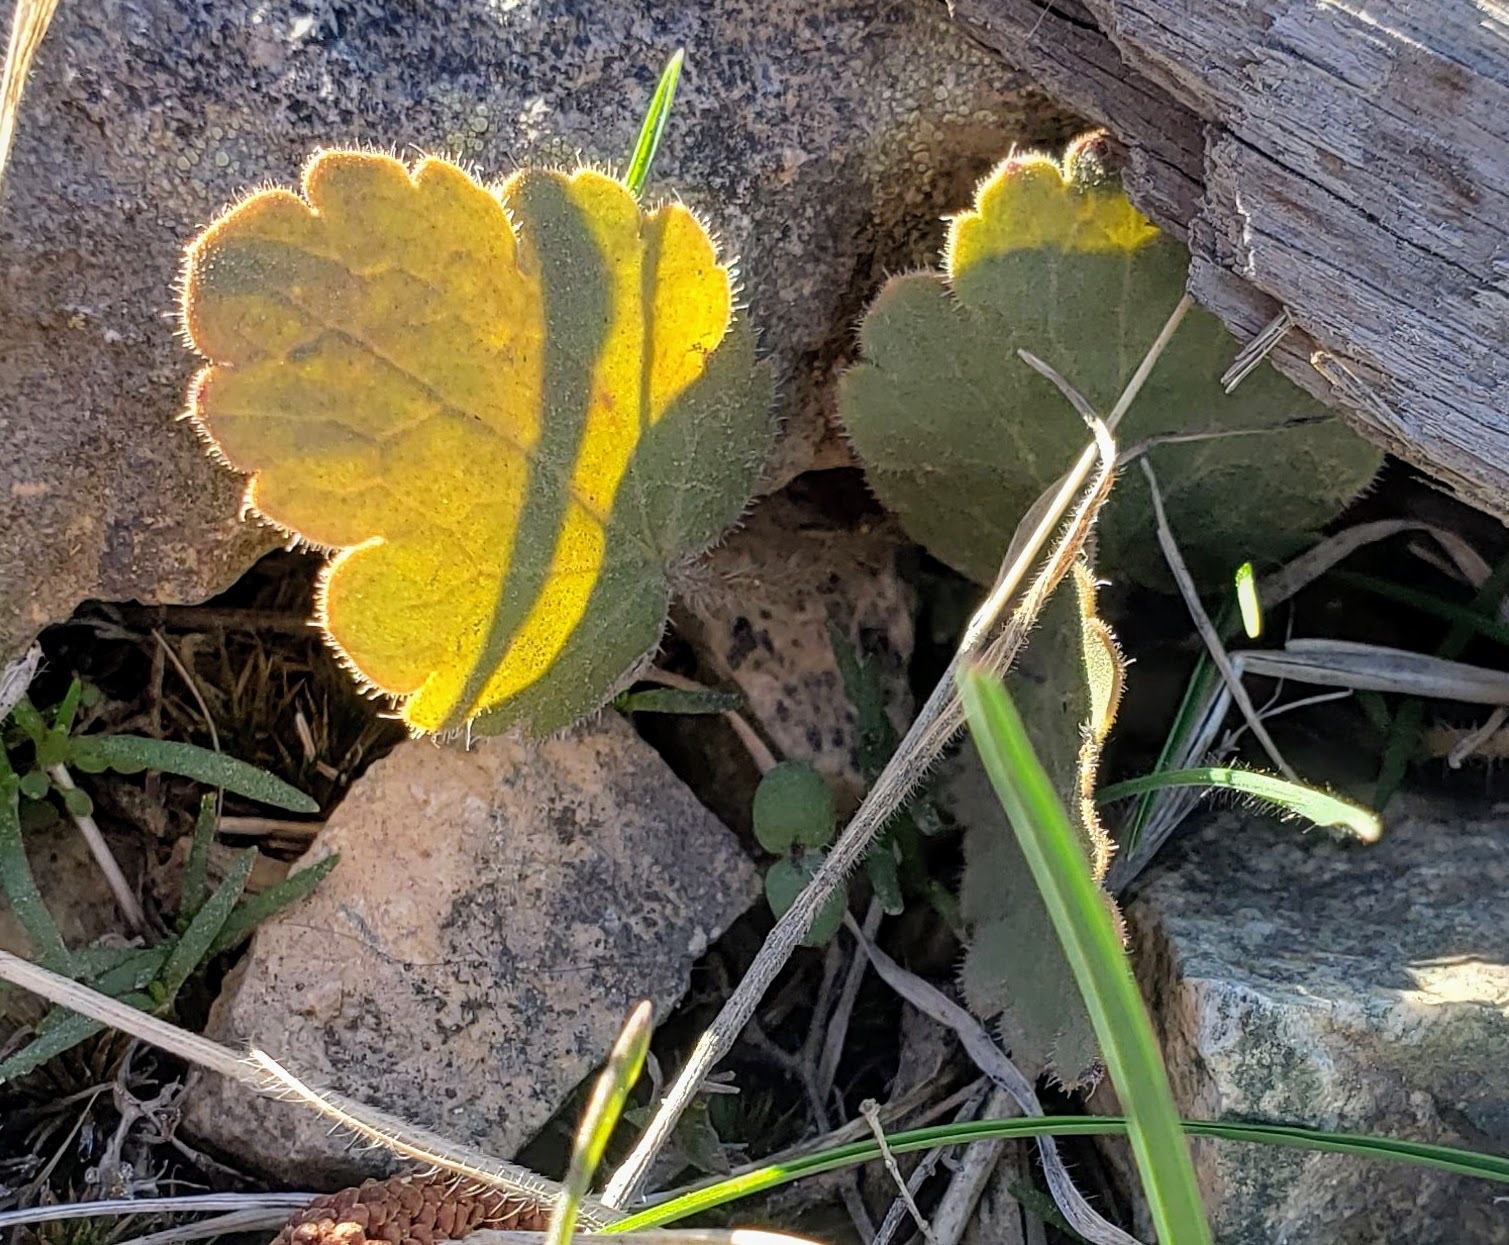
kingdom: Plantae
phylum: Tracheophyta
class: Magnoliopsida
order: Saxifragales
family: Saxifragaceae
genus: Heuchera
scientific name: Heuchera cylindrica
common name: Mat alumroot
